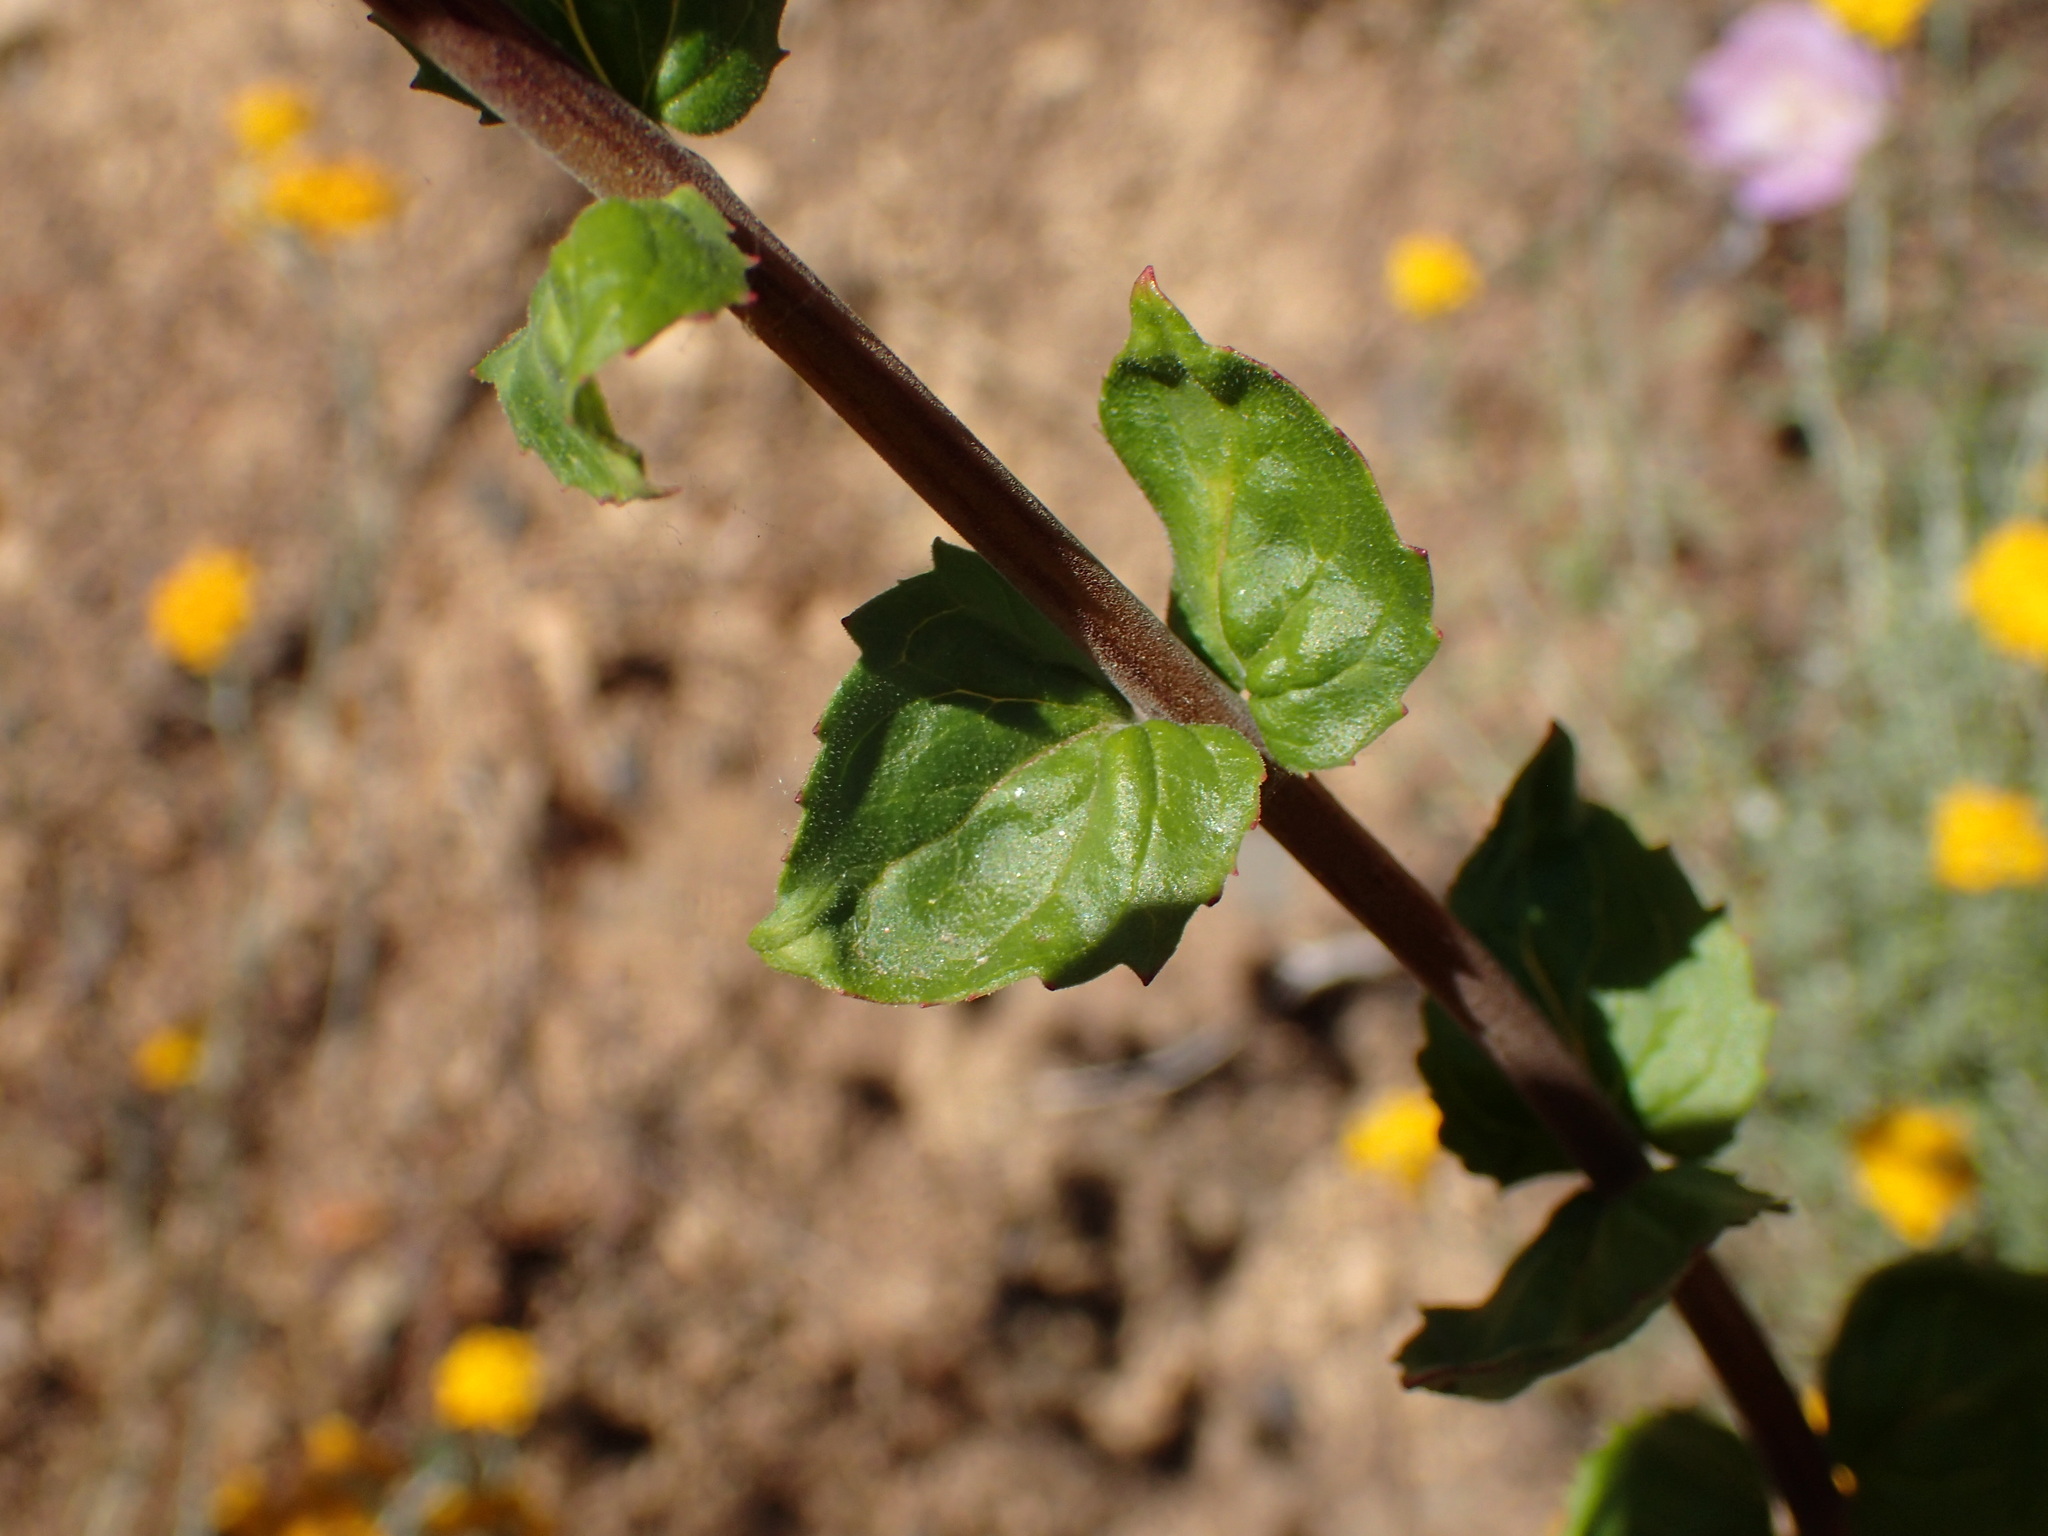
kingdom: Plantae
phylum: Tracheophyta
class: Magnoliopsida
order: Lamiales
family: Plantaginaceae
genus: Keckiella
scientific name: Keckiella cordifolia
